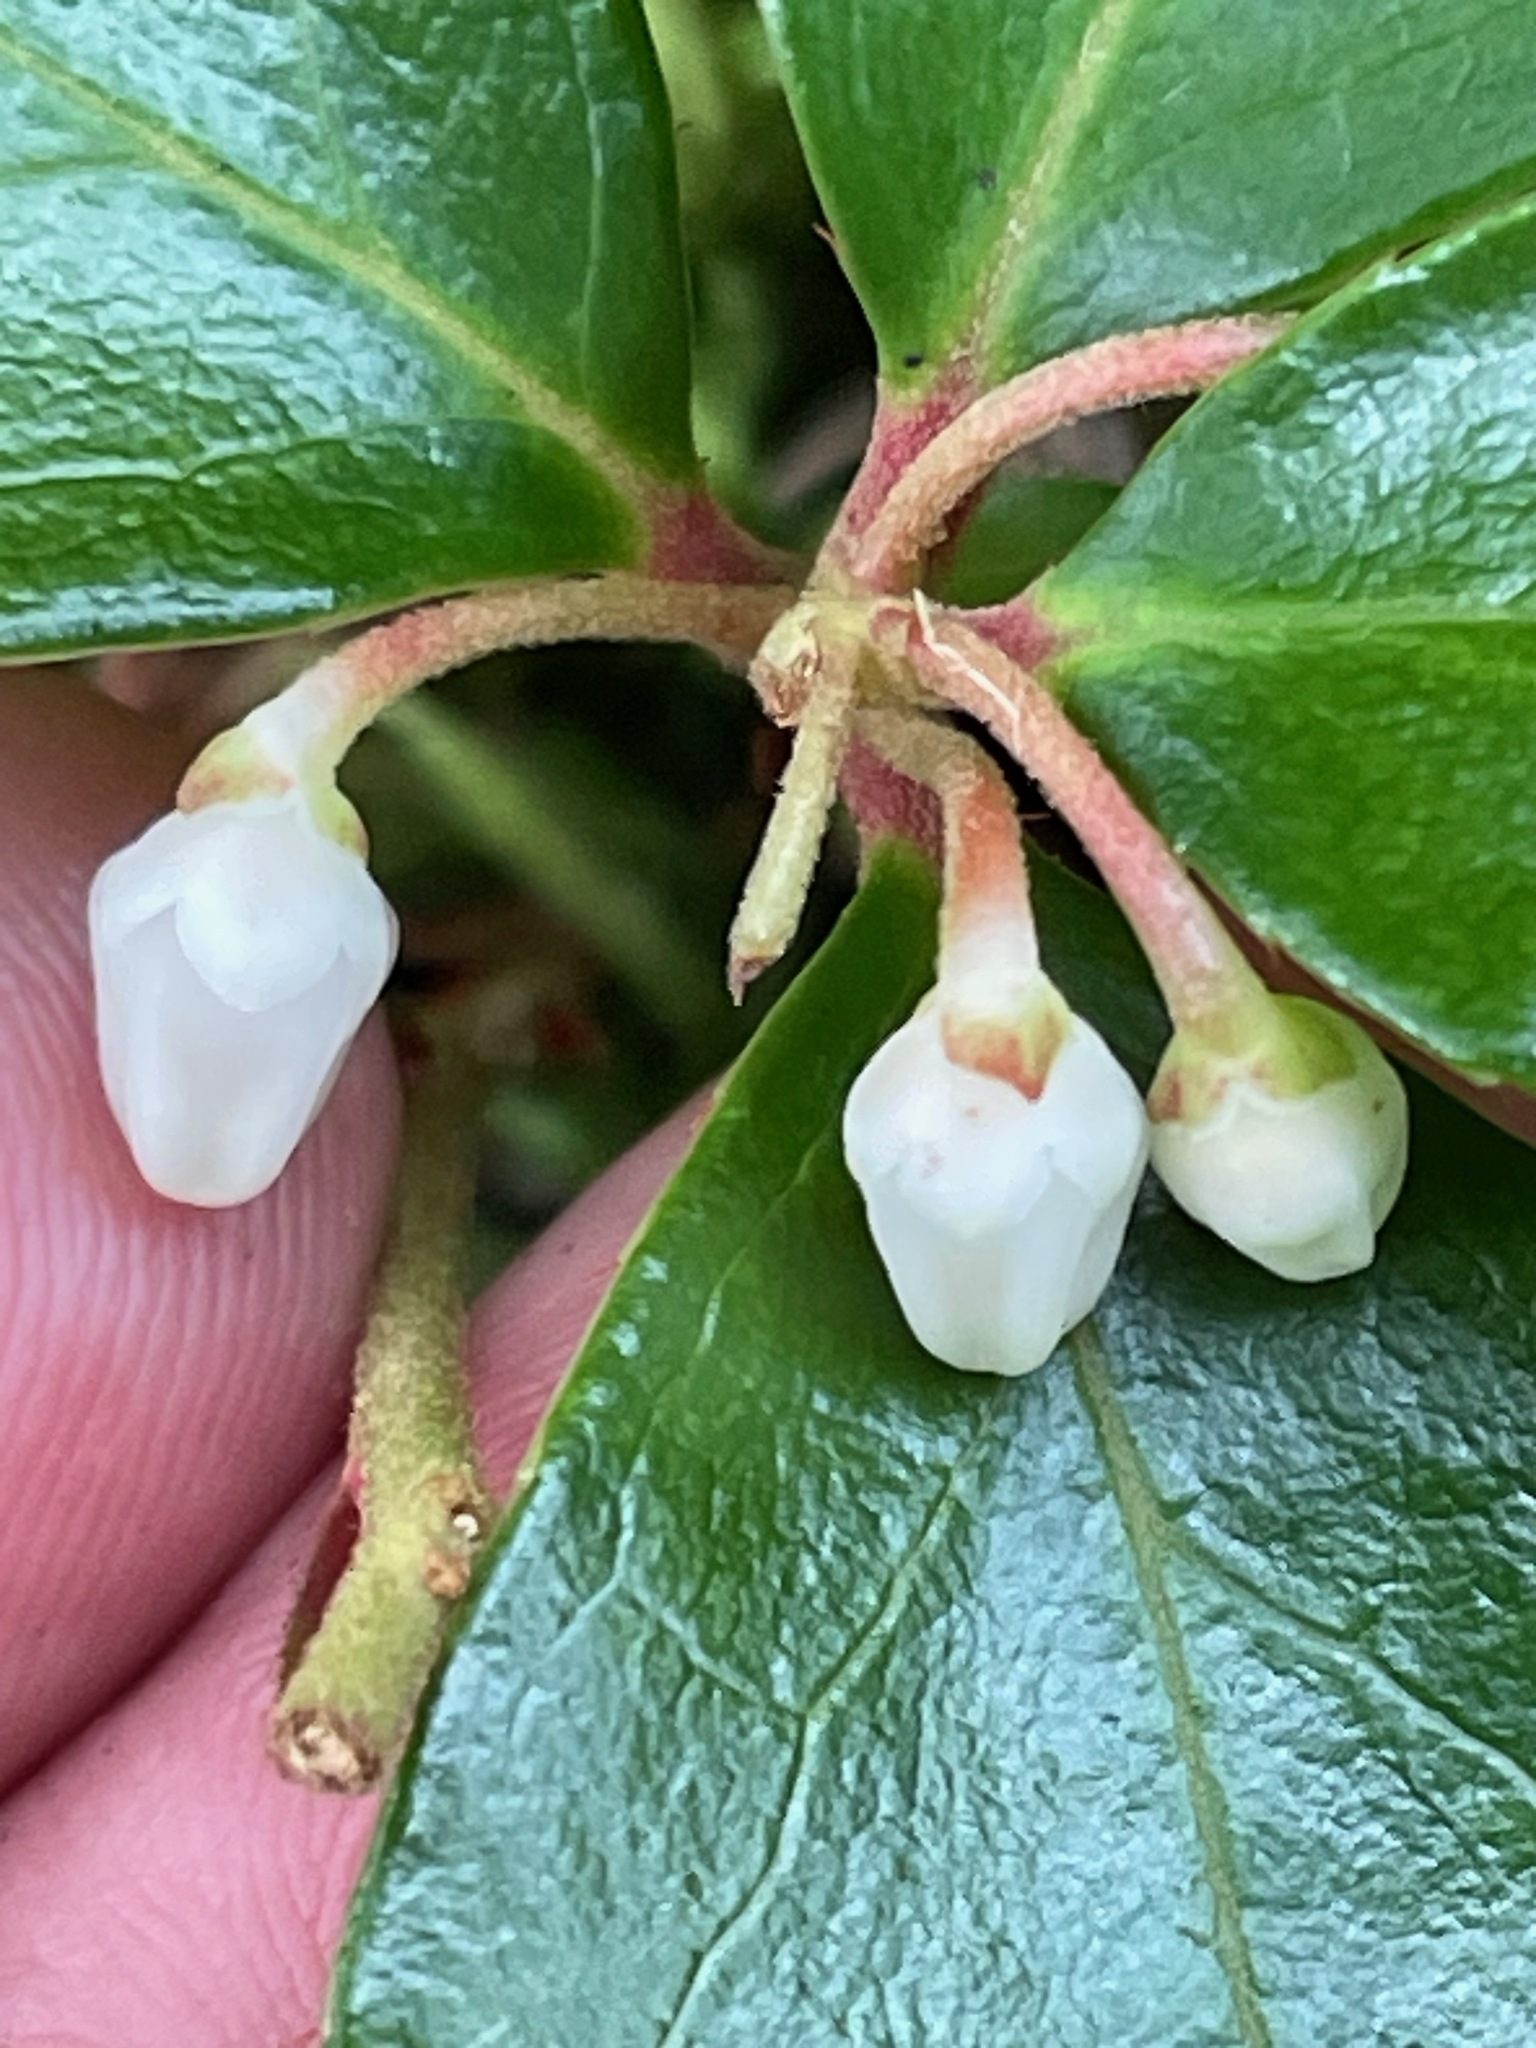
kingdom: Plantae
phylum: Tracheophyta
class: Magnoliopsida
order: Ericales
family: Ericaceae
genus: Gaultheria
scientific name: Gaultheria procumbens
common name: Checkerberry
